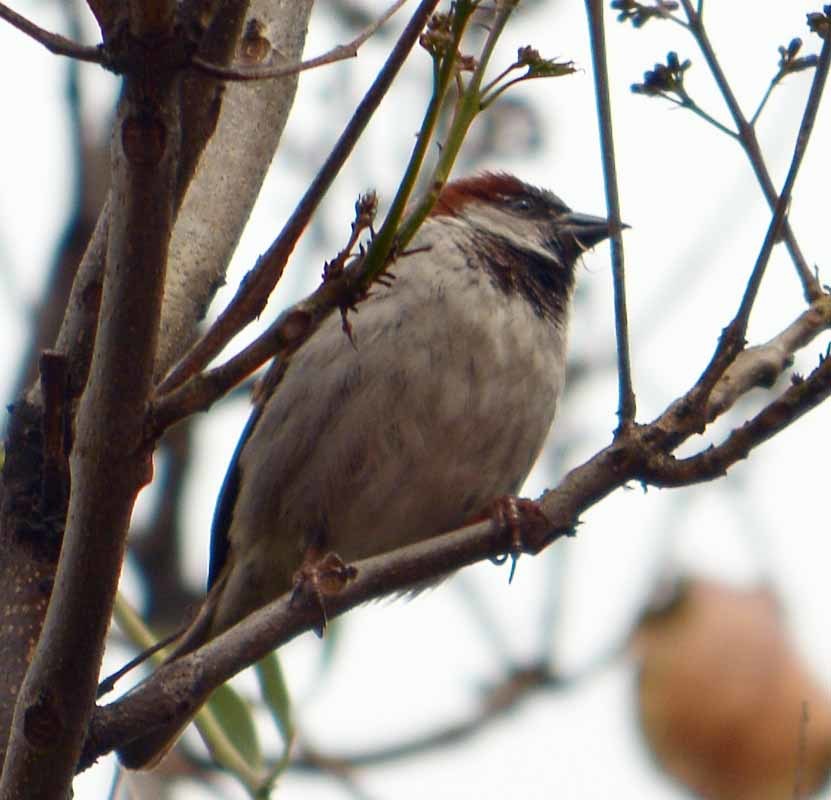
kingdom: Animalia
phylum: Chordata
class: Aves
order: Passeriformes
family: Passeridae
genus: Passer
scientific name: Passer domesticus
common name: House sparrow
